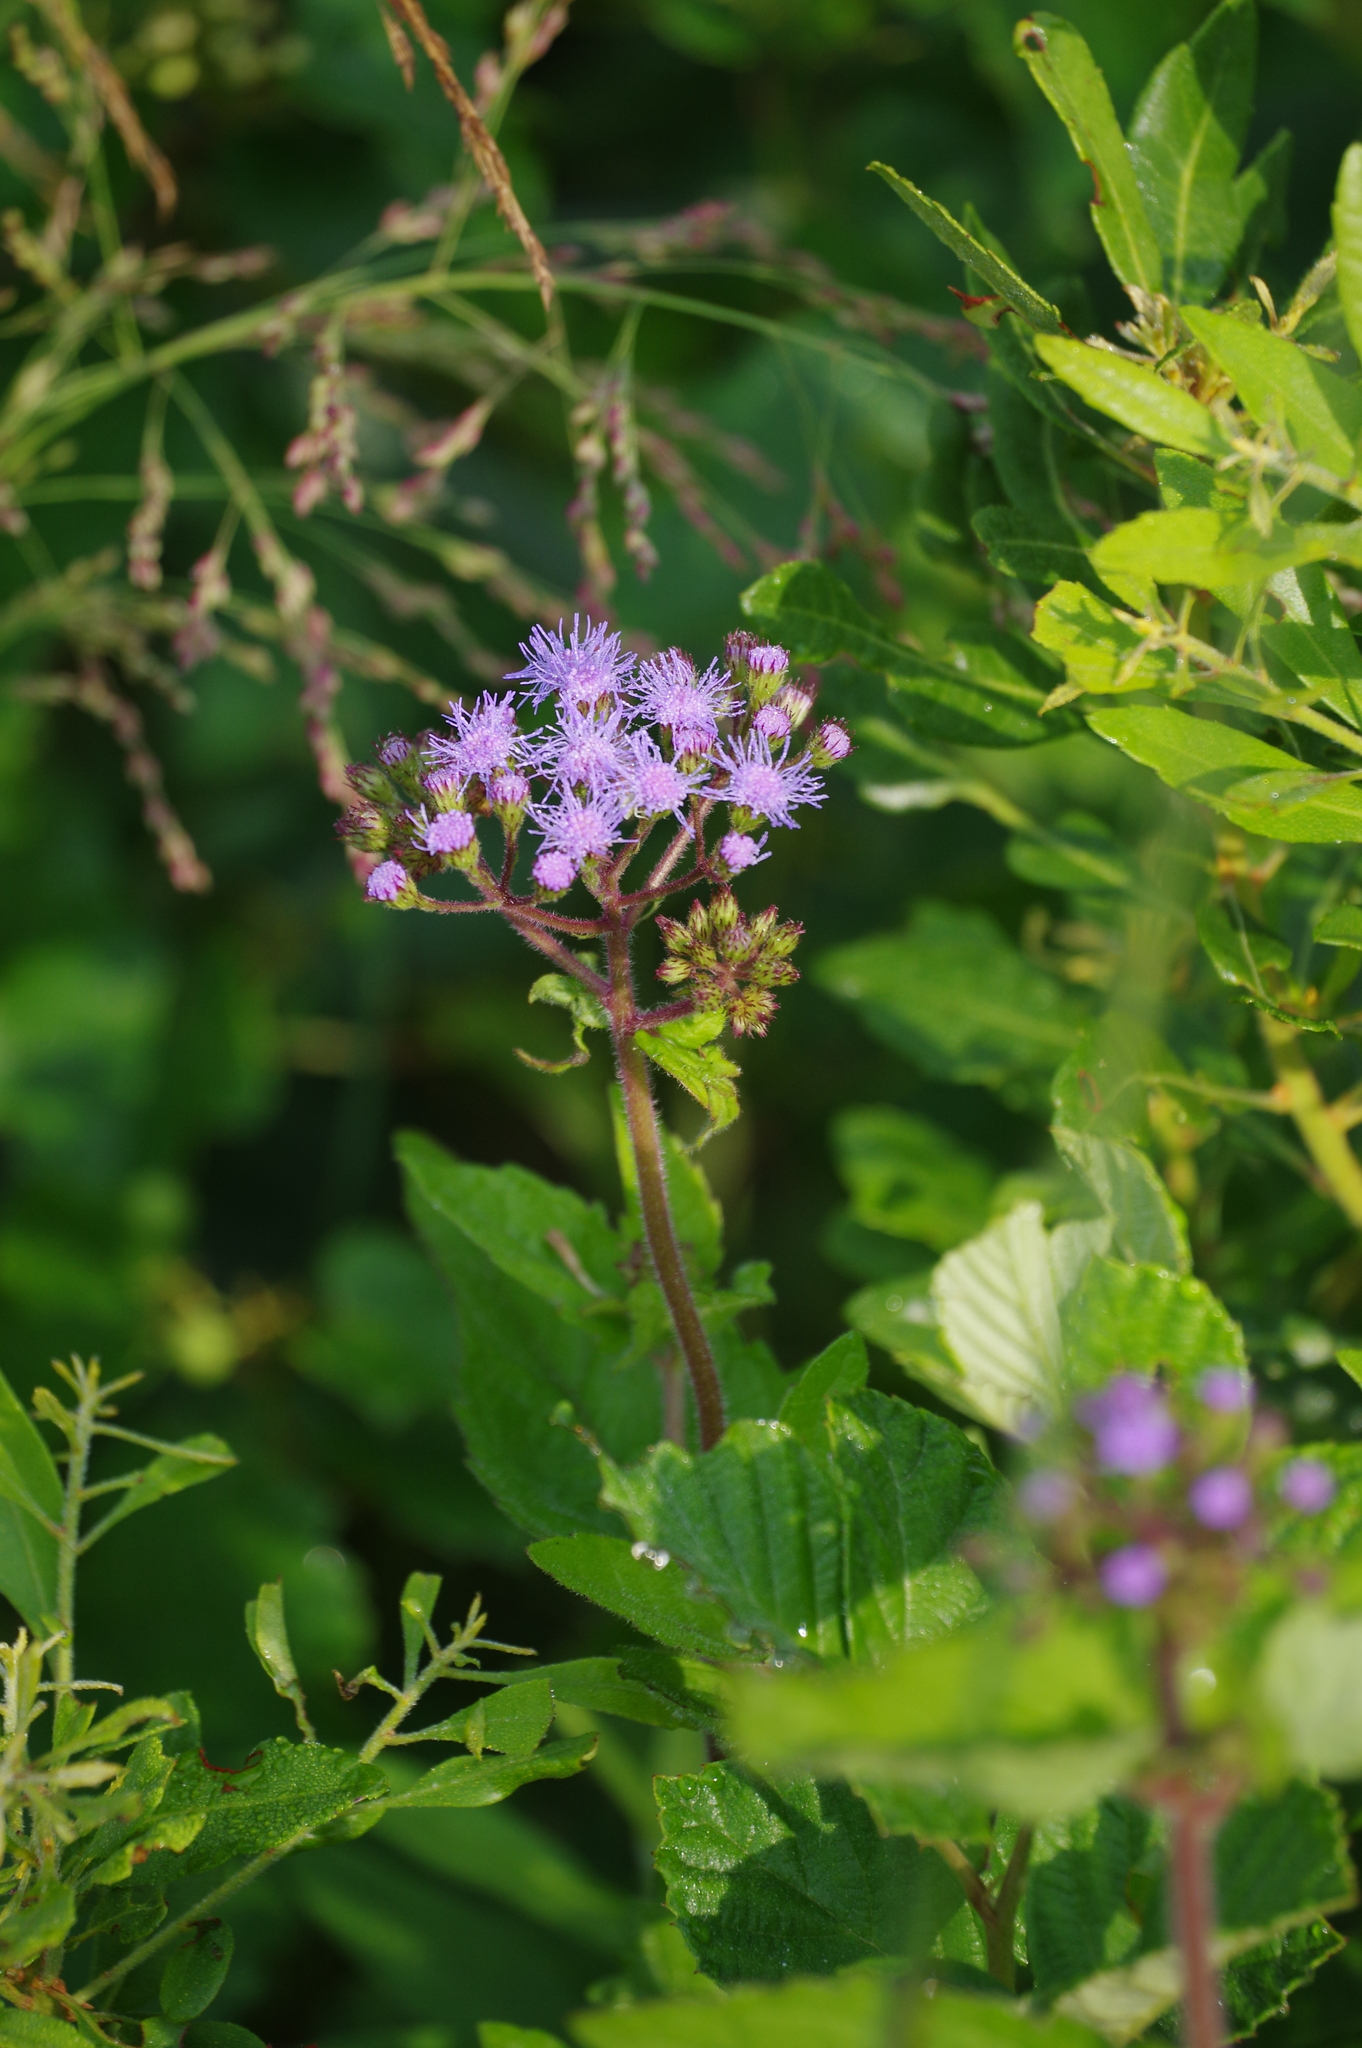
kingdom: Plantae
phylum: Tracheophyta
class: Magnoliopsida
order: Asterales
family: Asteraceae
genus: Conoclinium
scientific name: Conoclinium coelestinum
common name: Blue mistflower
